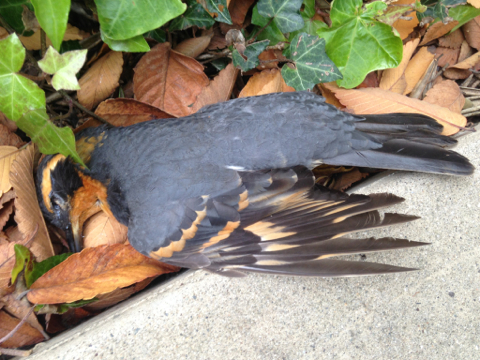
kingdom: Animalia
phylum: Chordata
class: Aves
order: Passeriformes
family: Turdidae
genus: Ixoreus
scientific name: Ixoreus naevius
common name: Varied thrush
